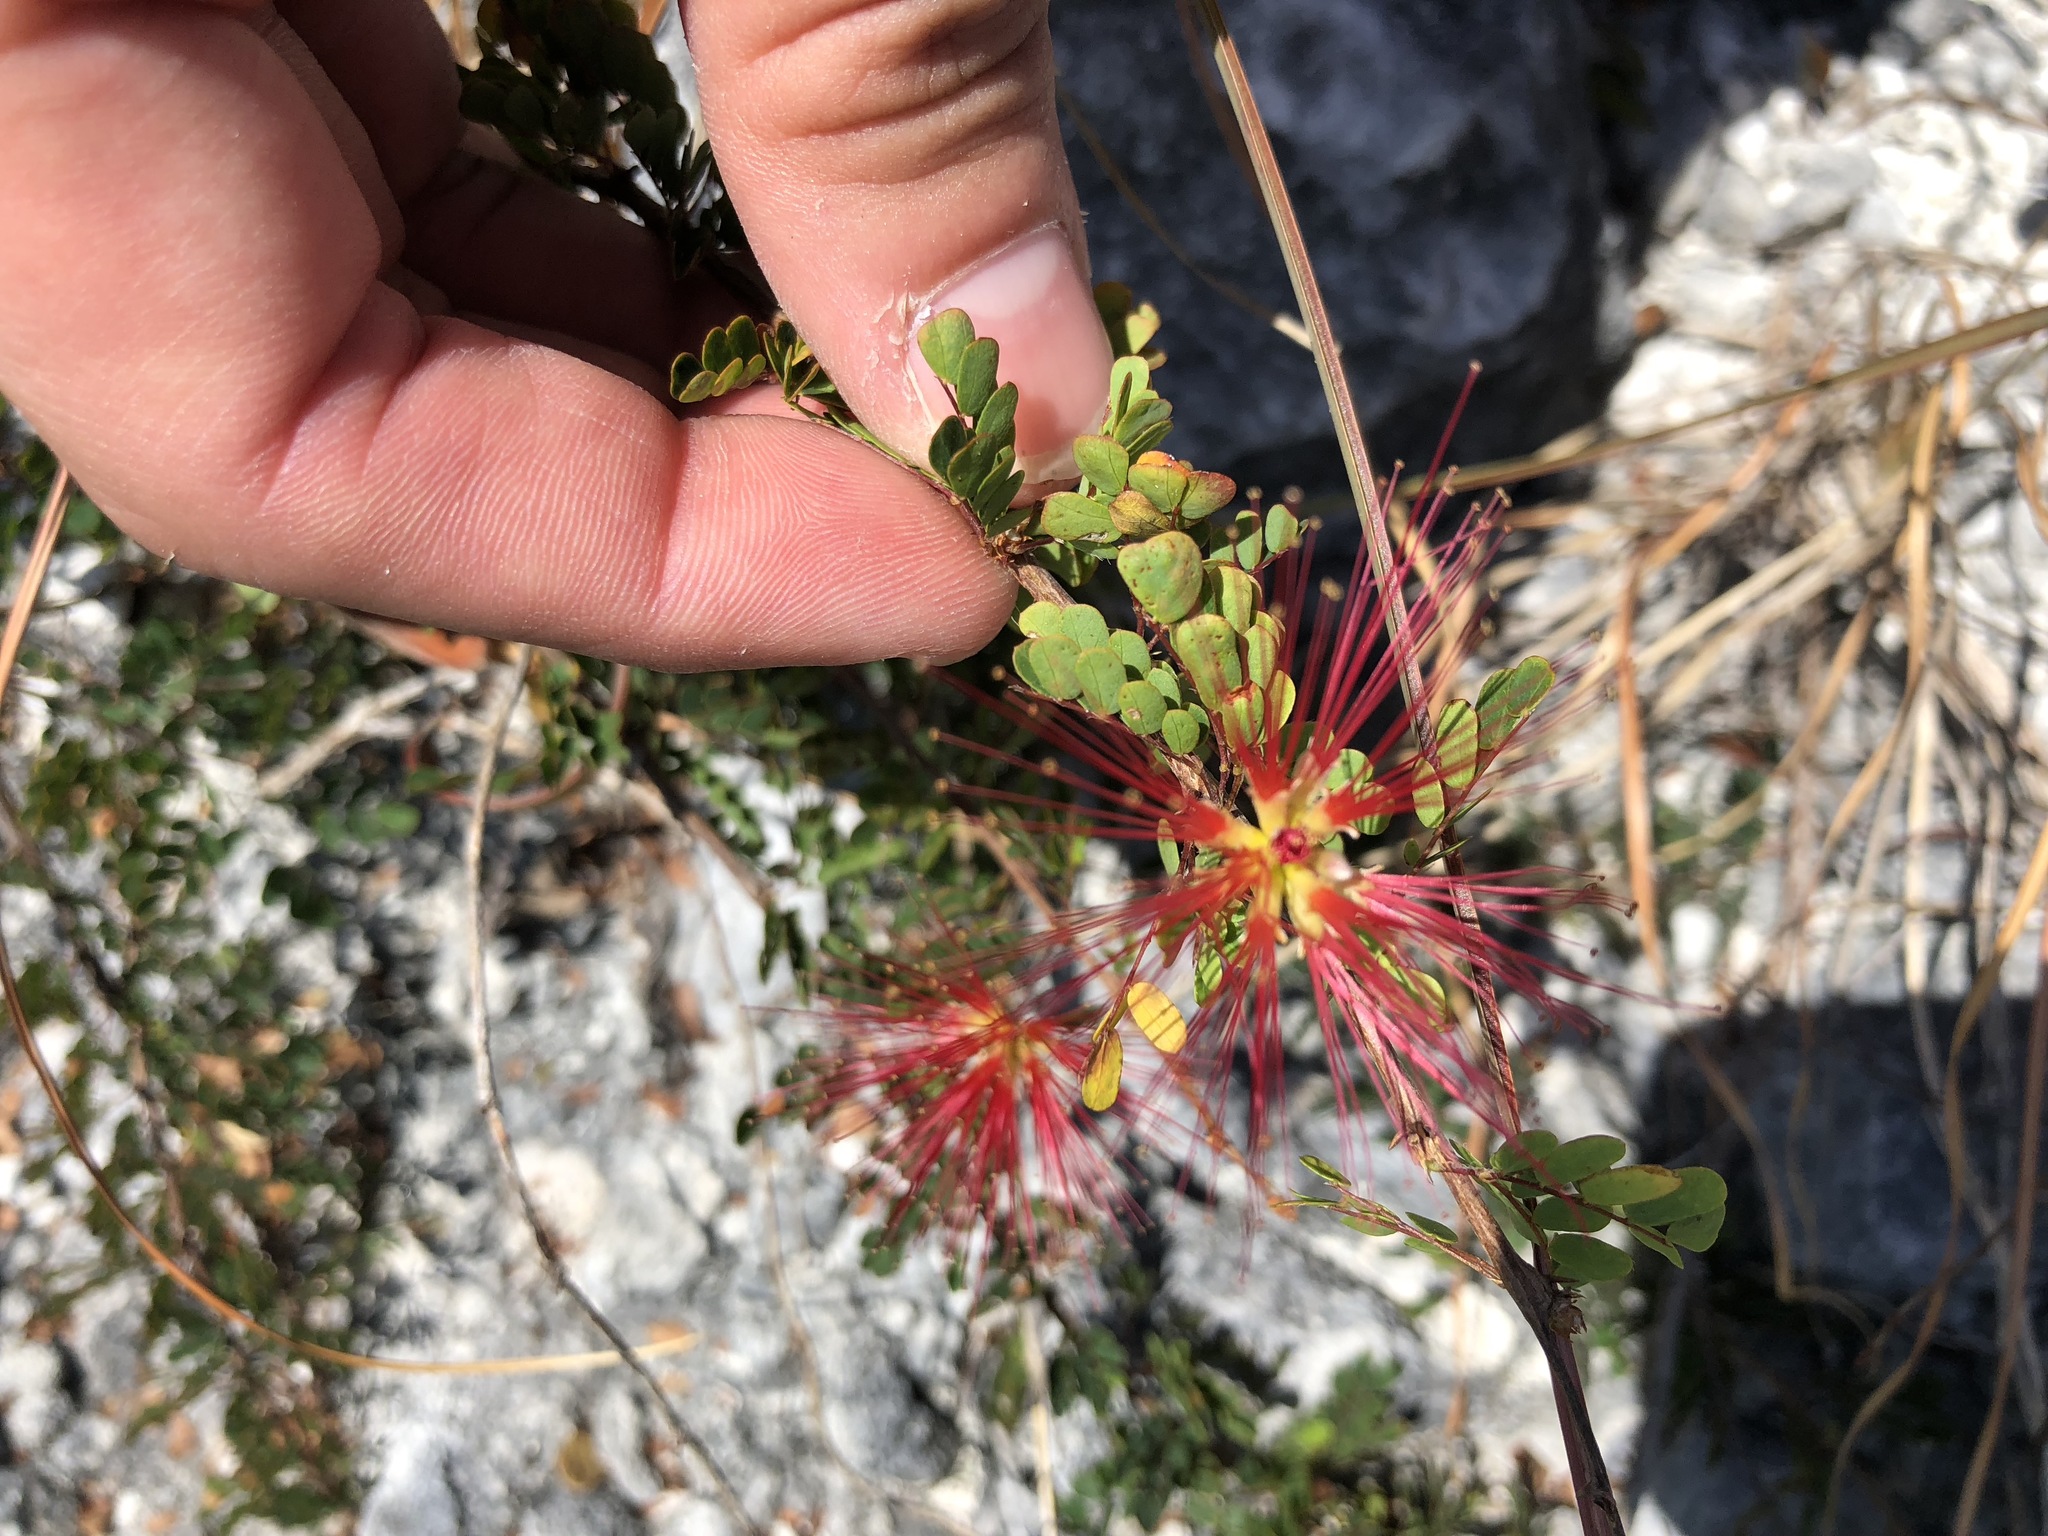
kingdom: Plantae
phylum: Tracheophyta
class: Magnoliopsida
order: Fabales
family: Fabaceae
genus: Calliandra
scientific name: Calliandra haematomma
